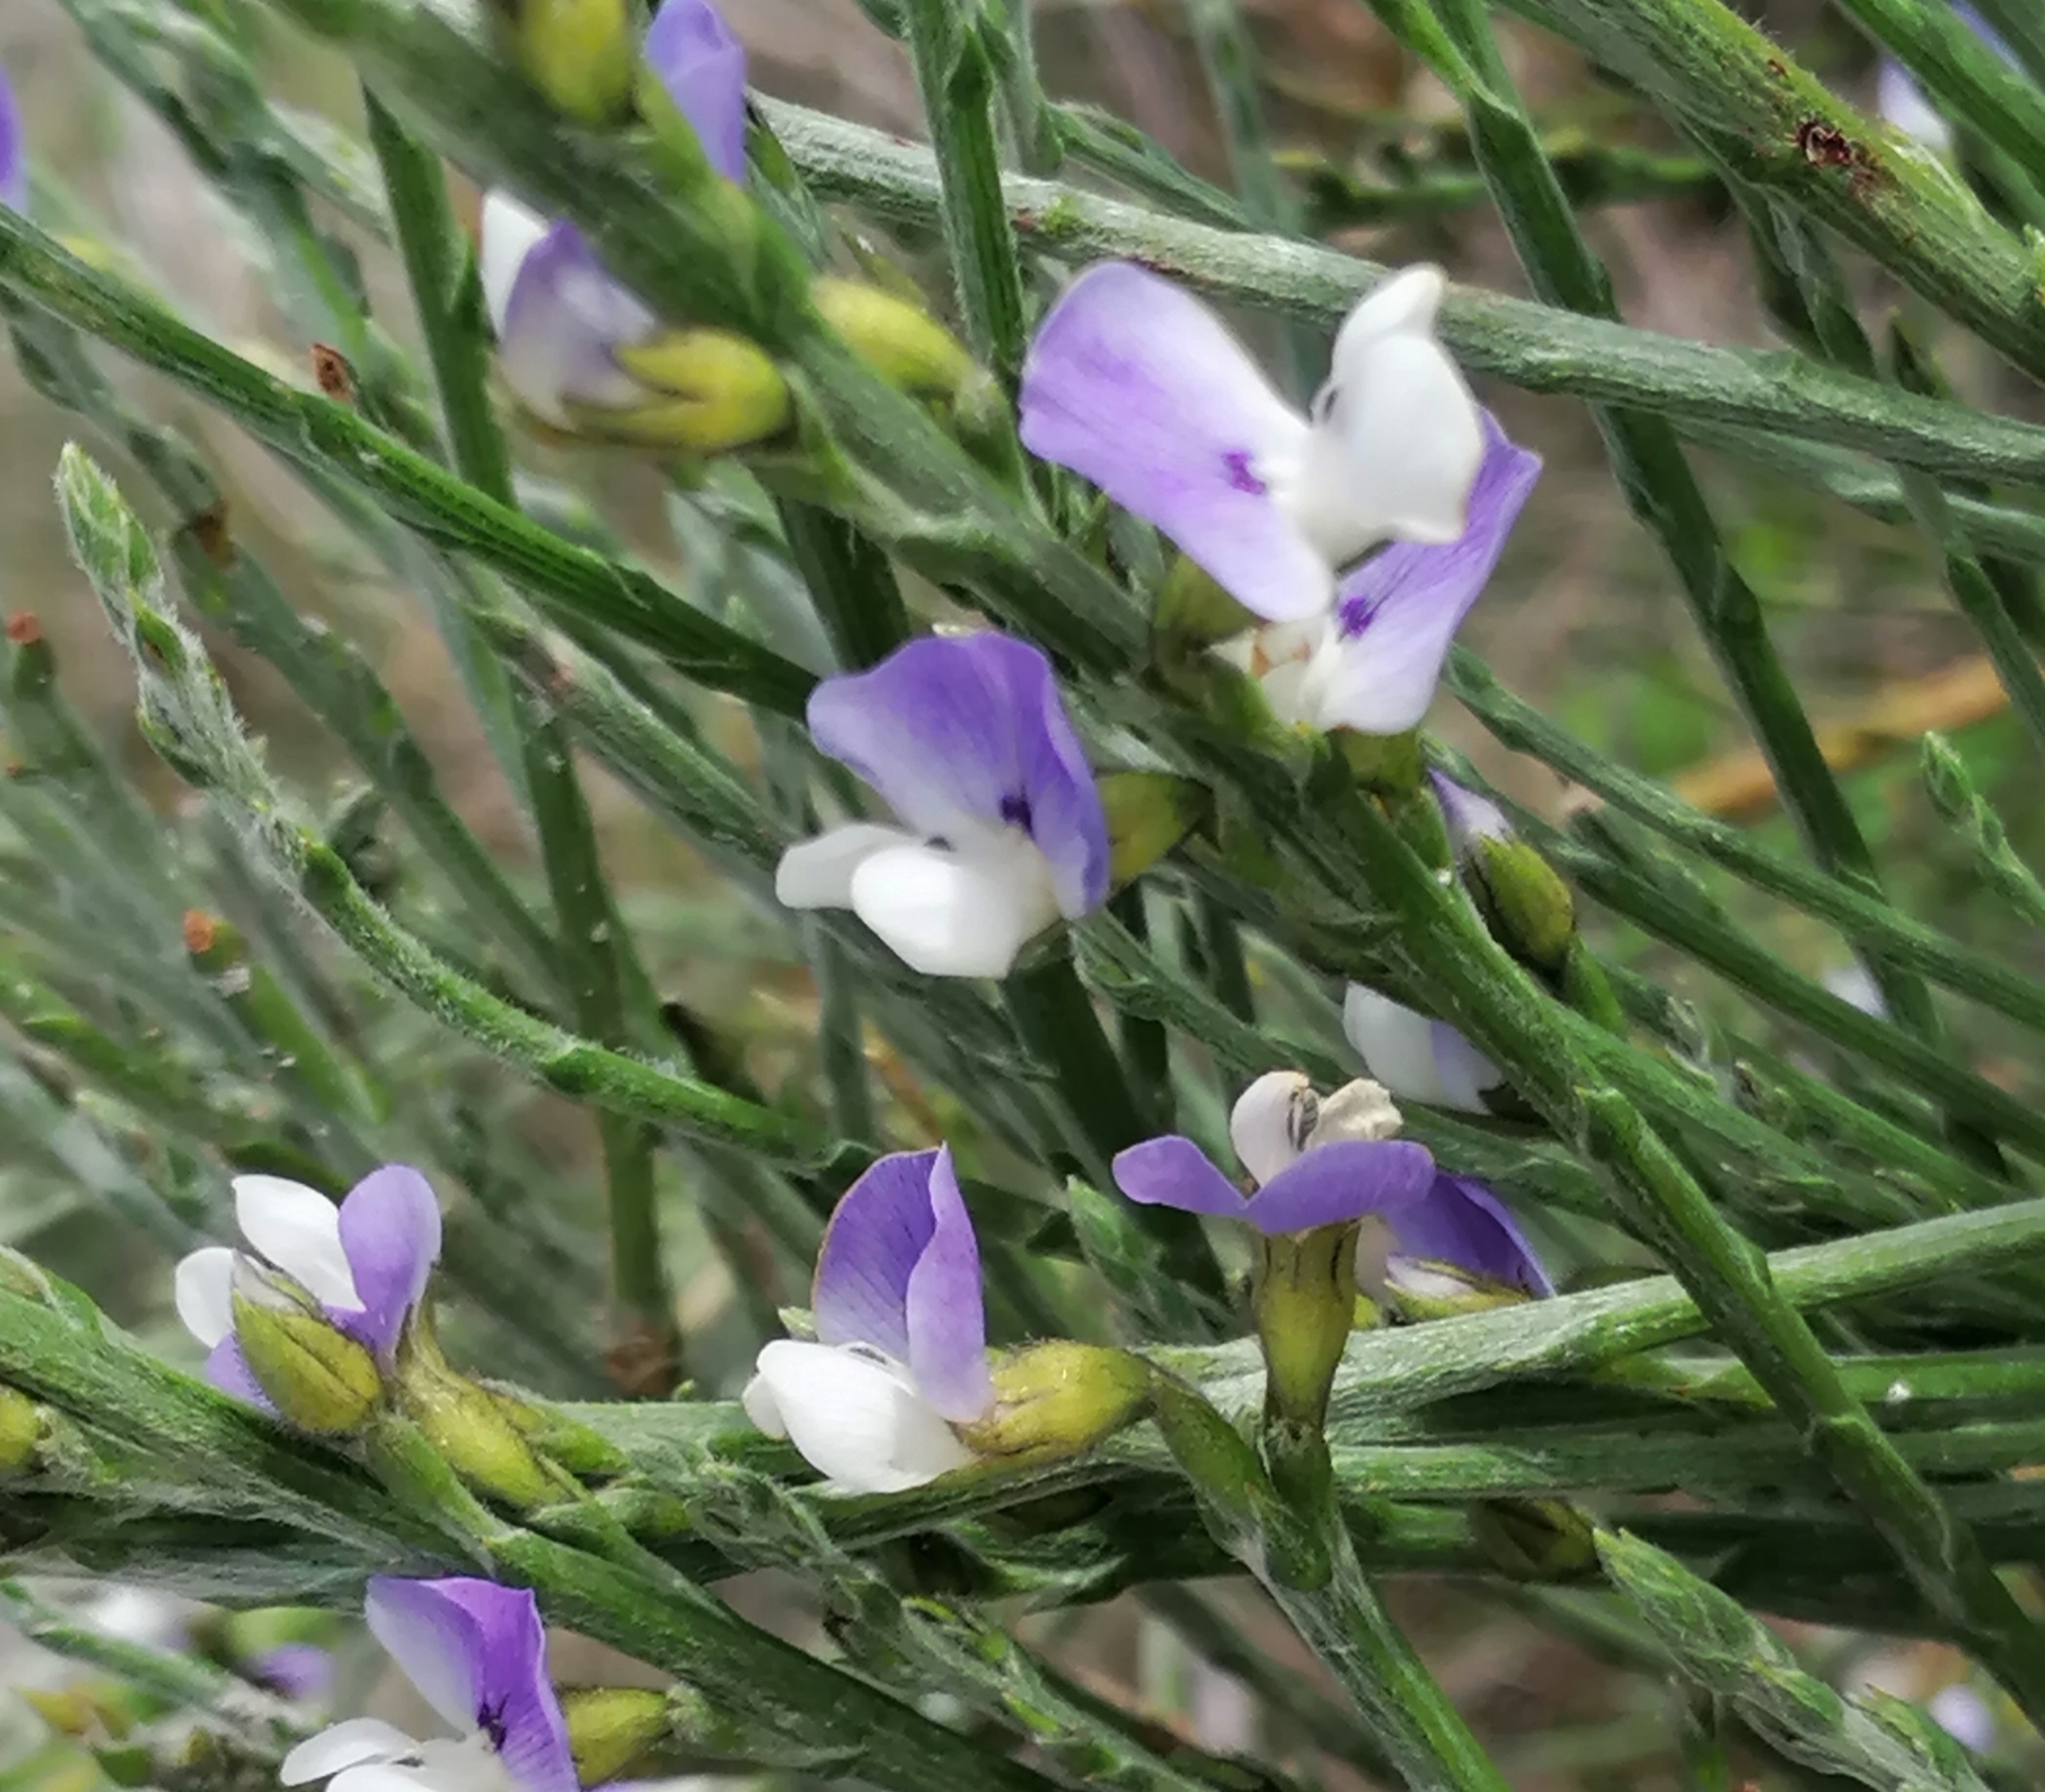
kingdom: Plantae
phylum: Tracheophyta
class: Magnoliopsida
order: Fabales
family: Fabaceae
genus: Psoralea
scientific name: Psoralea aphylla
